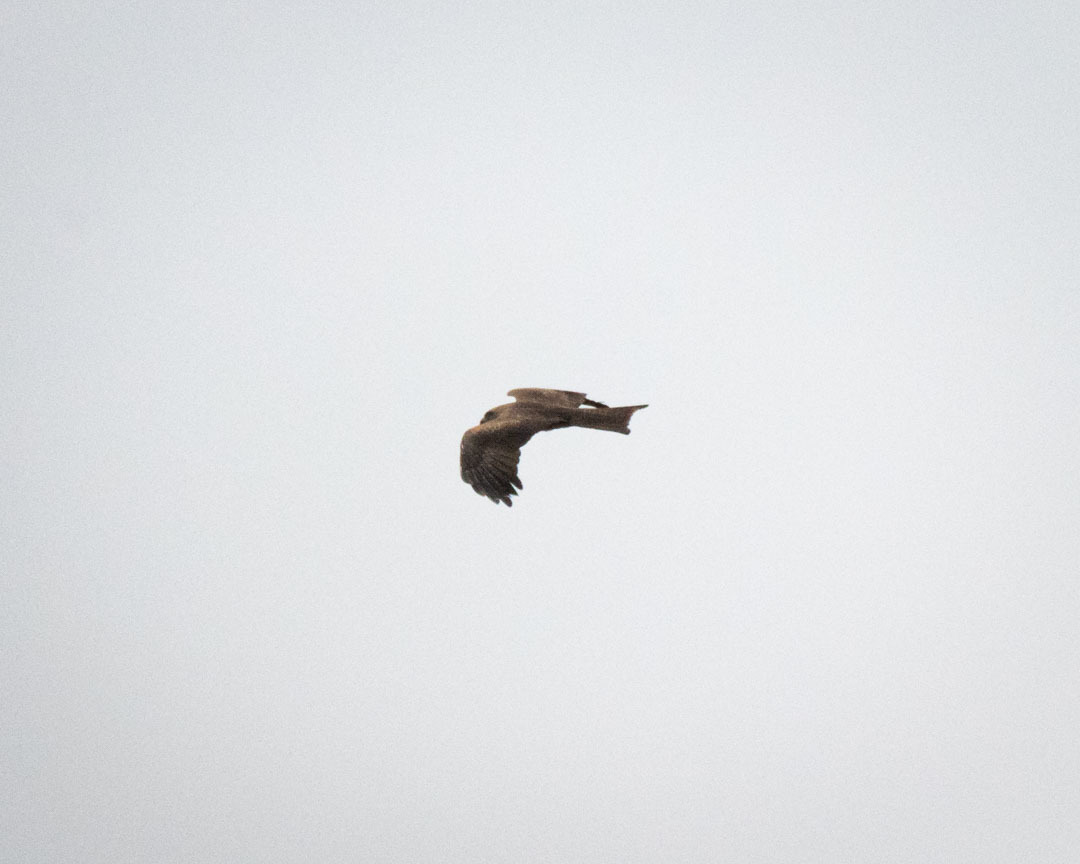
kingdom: Animalia
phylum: Chordata
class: Aves
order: Accipitriformes
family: Accipitridae
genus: Milvus
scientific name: Milvus migrans
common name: Black kite
